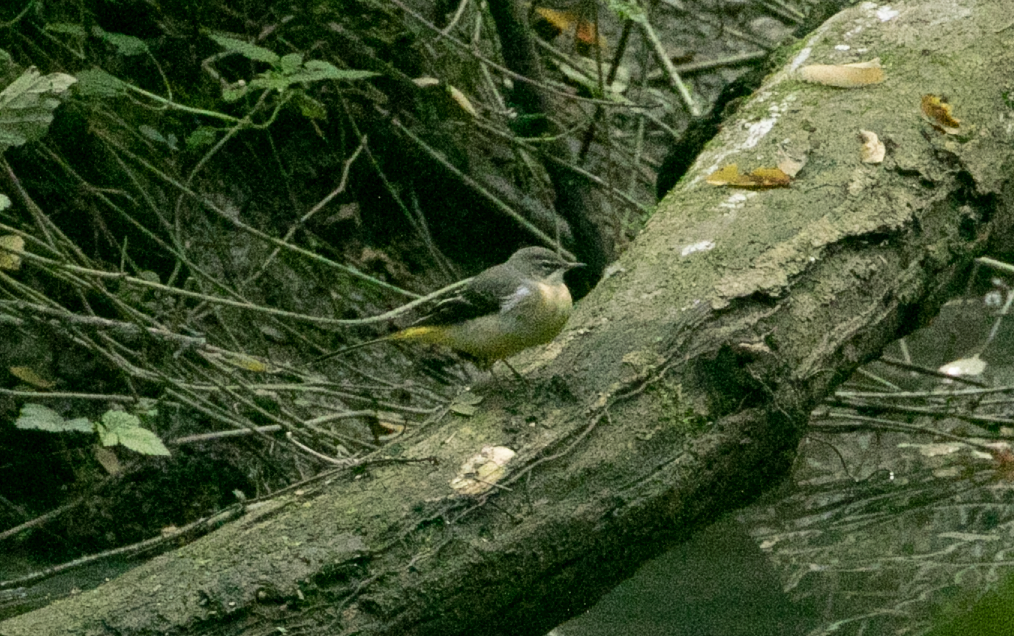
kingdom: Animalia
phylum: Chordata
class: Aves
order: Passeriformes
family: Motacillidae
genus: Motacilla
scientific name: Motacilla cinerea
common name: Grey wagtail
